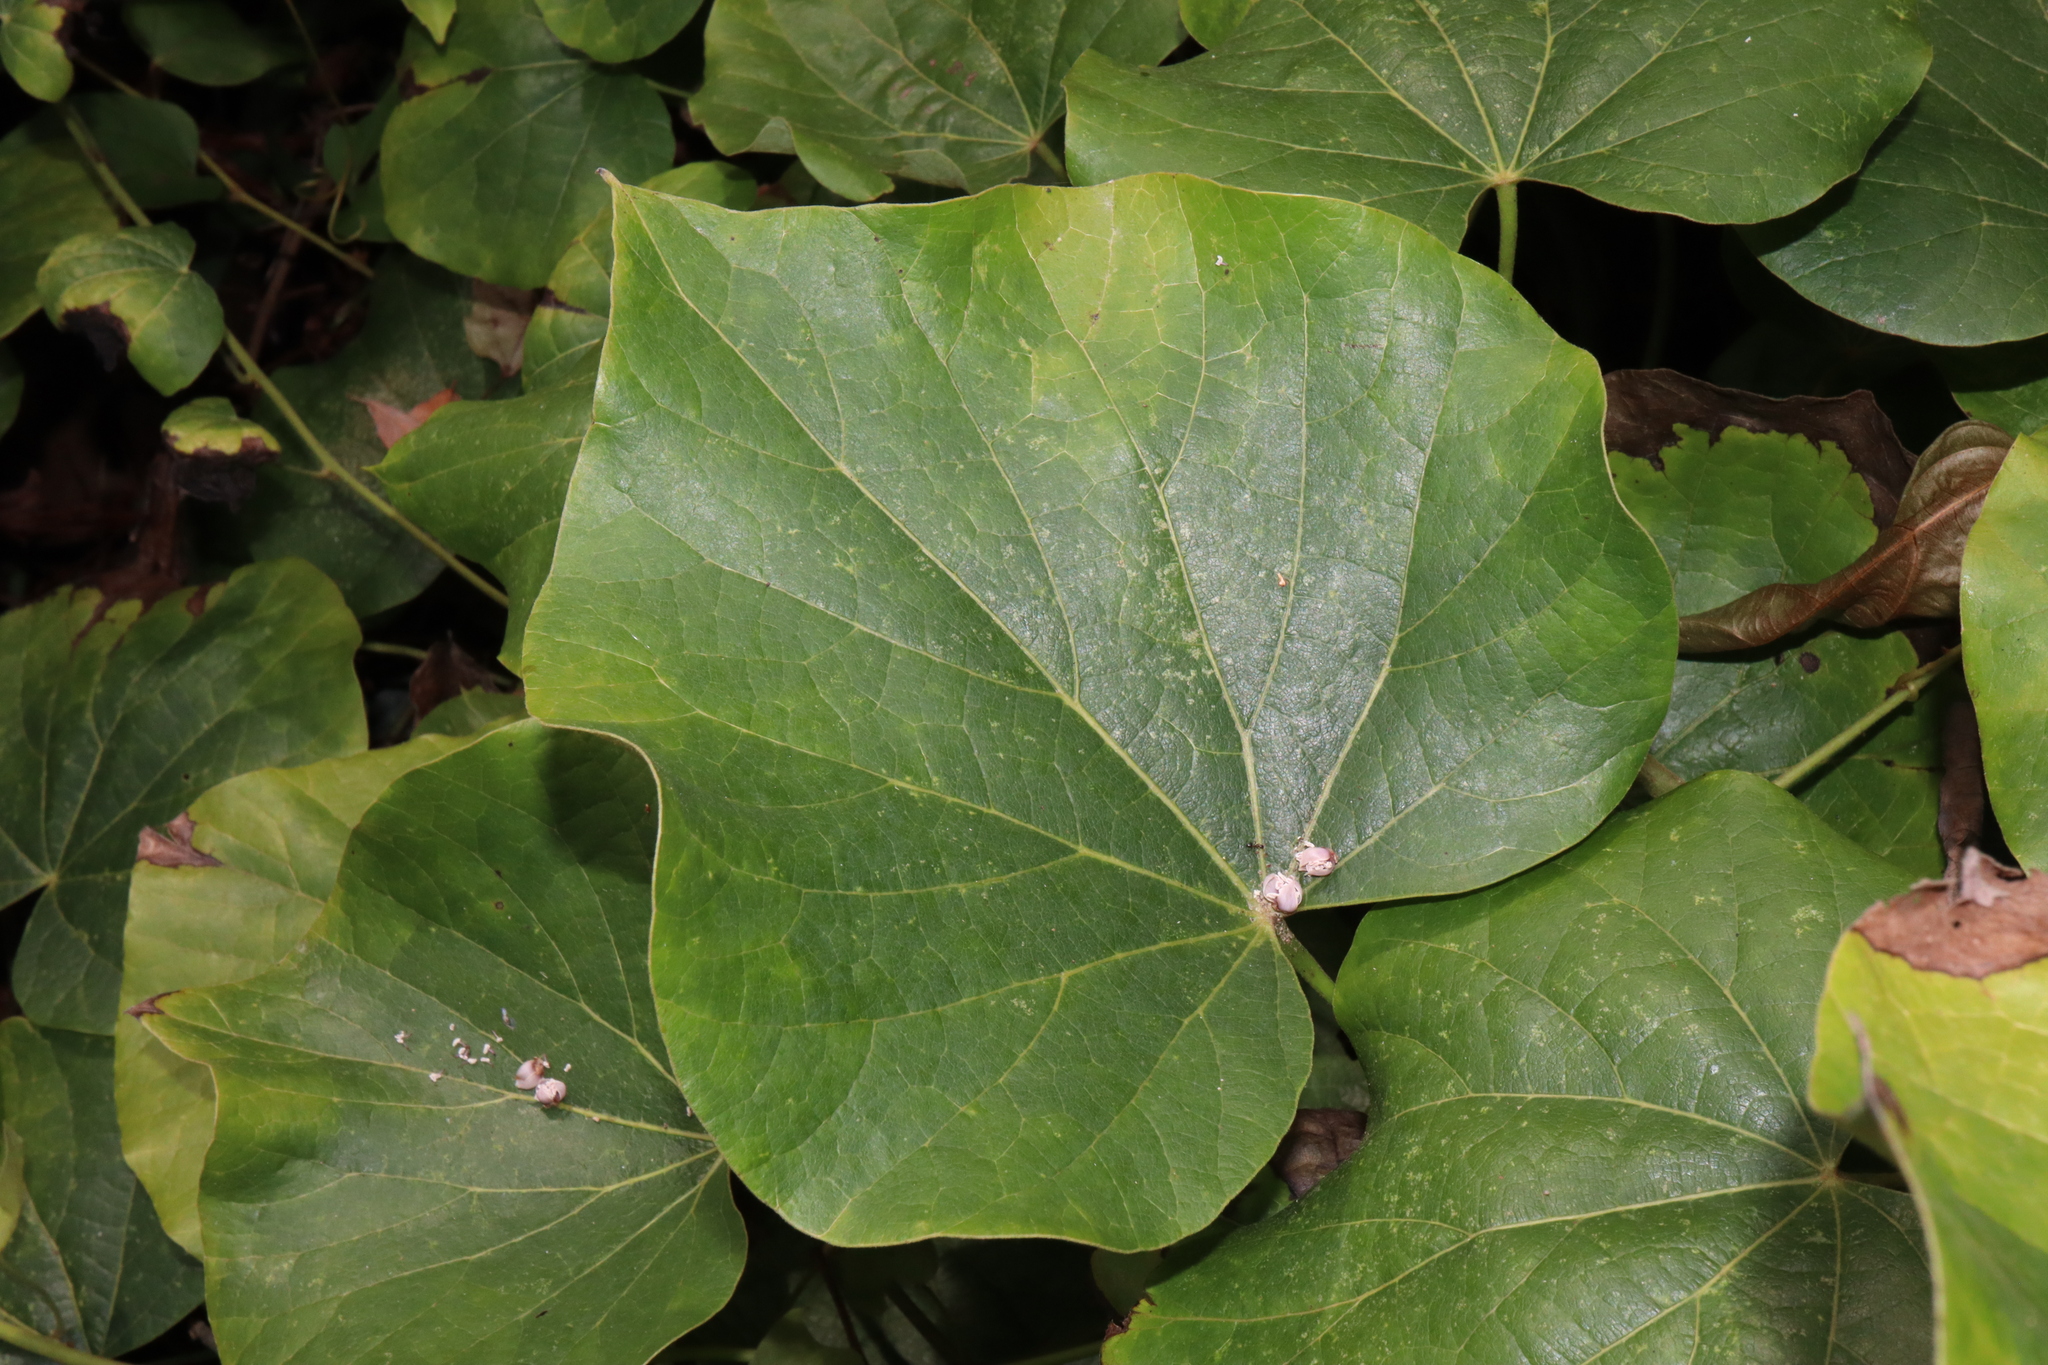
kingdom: Plantae
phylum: Tracheophyta
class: Magnoliopsida
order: Ranunculales
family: Menispermaceae
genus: Legnephora
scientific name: Legnephora moorei
